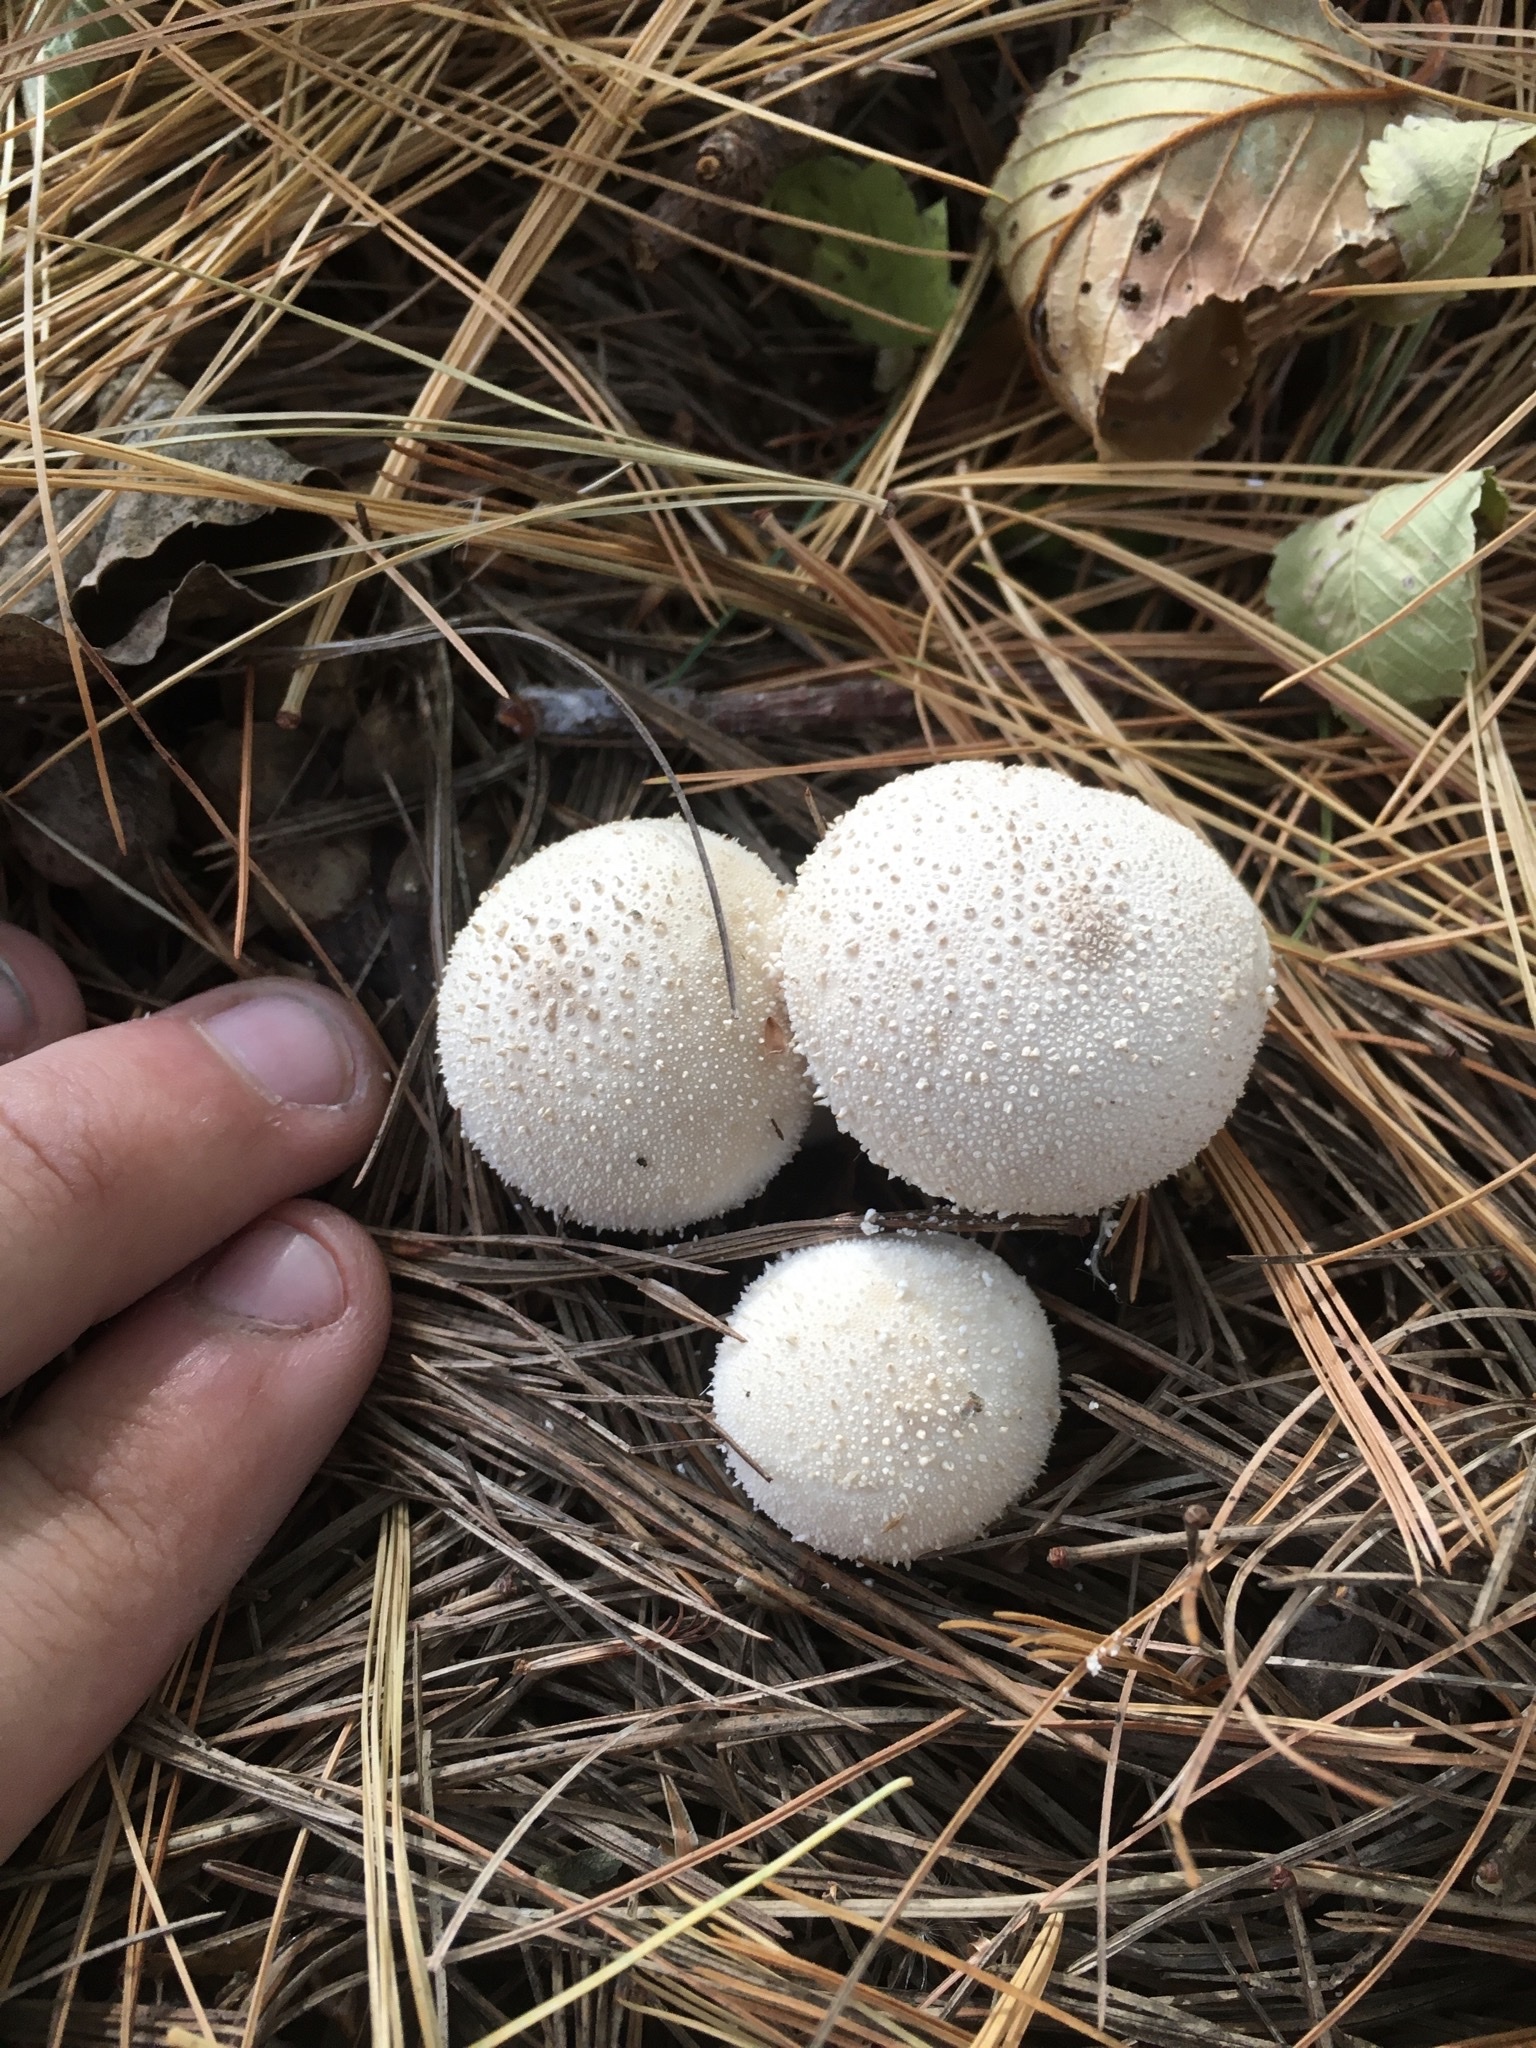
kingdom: Fungi
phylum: Basidiomycota
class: Agaricomycetes
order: Agaricales
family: Lycoperdaceae
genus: Lycoperdon
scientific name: Lycoperdon perlatum
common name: Common puffball
